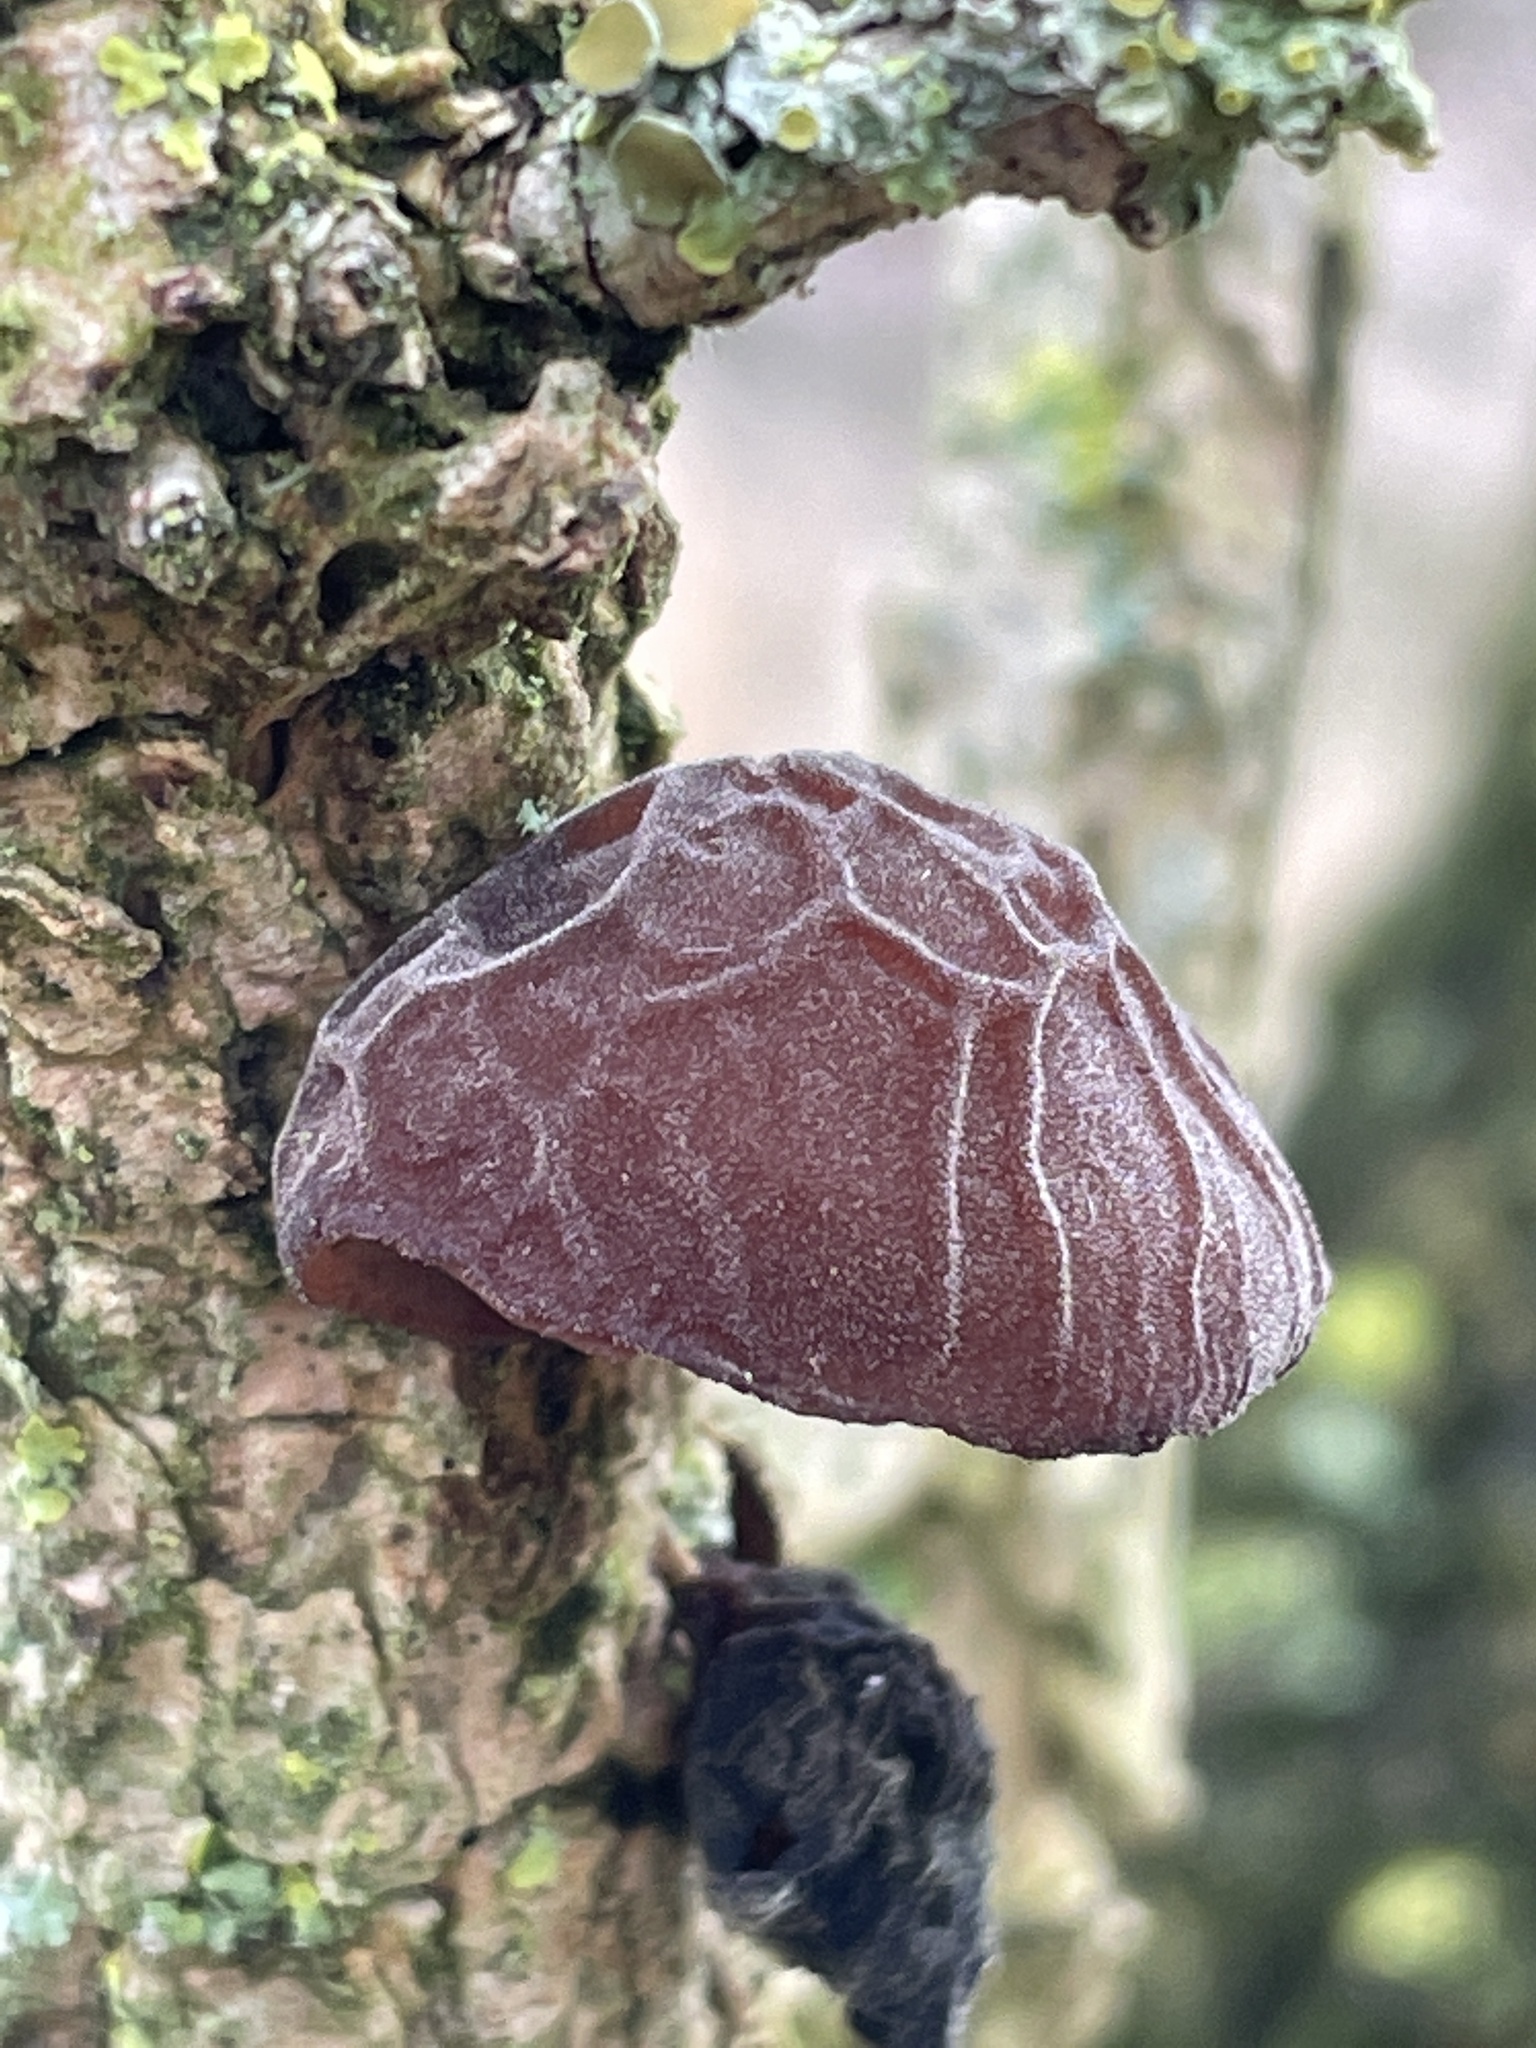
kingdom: Fungi
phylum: Basidiomycota
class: Agaricomycetes
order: Auriculariales
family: Auriculariaceae
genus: Auricularia
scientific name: Auricularia auricula-judae
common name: Jelly ear
